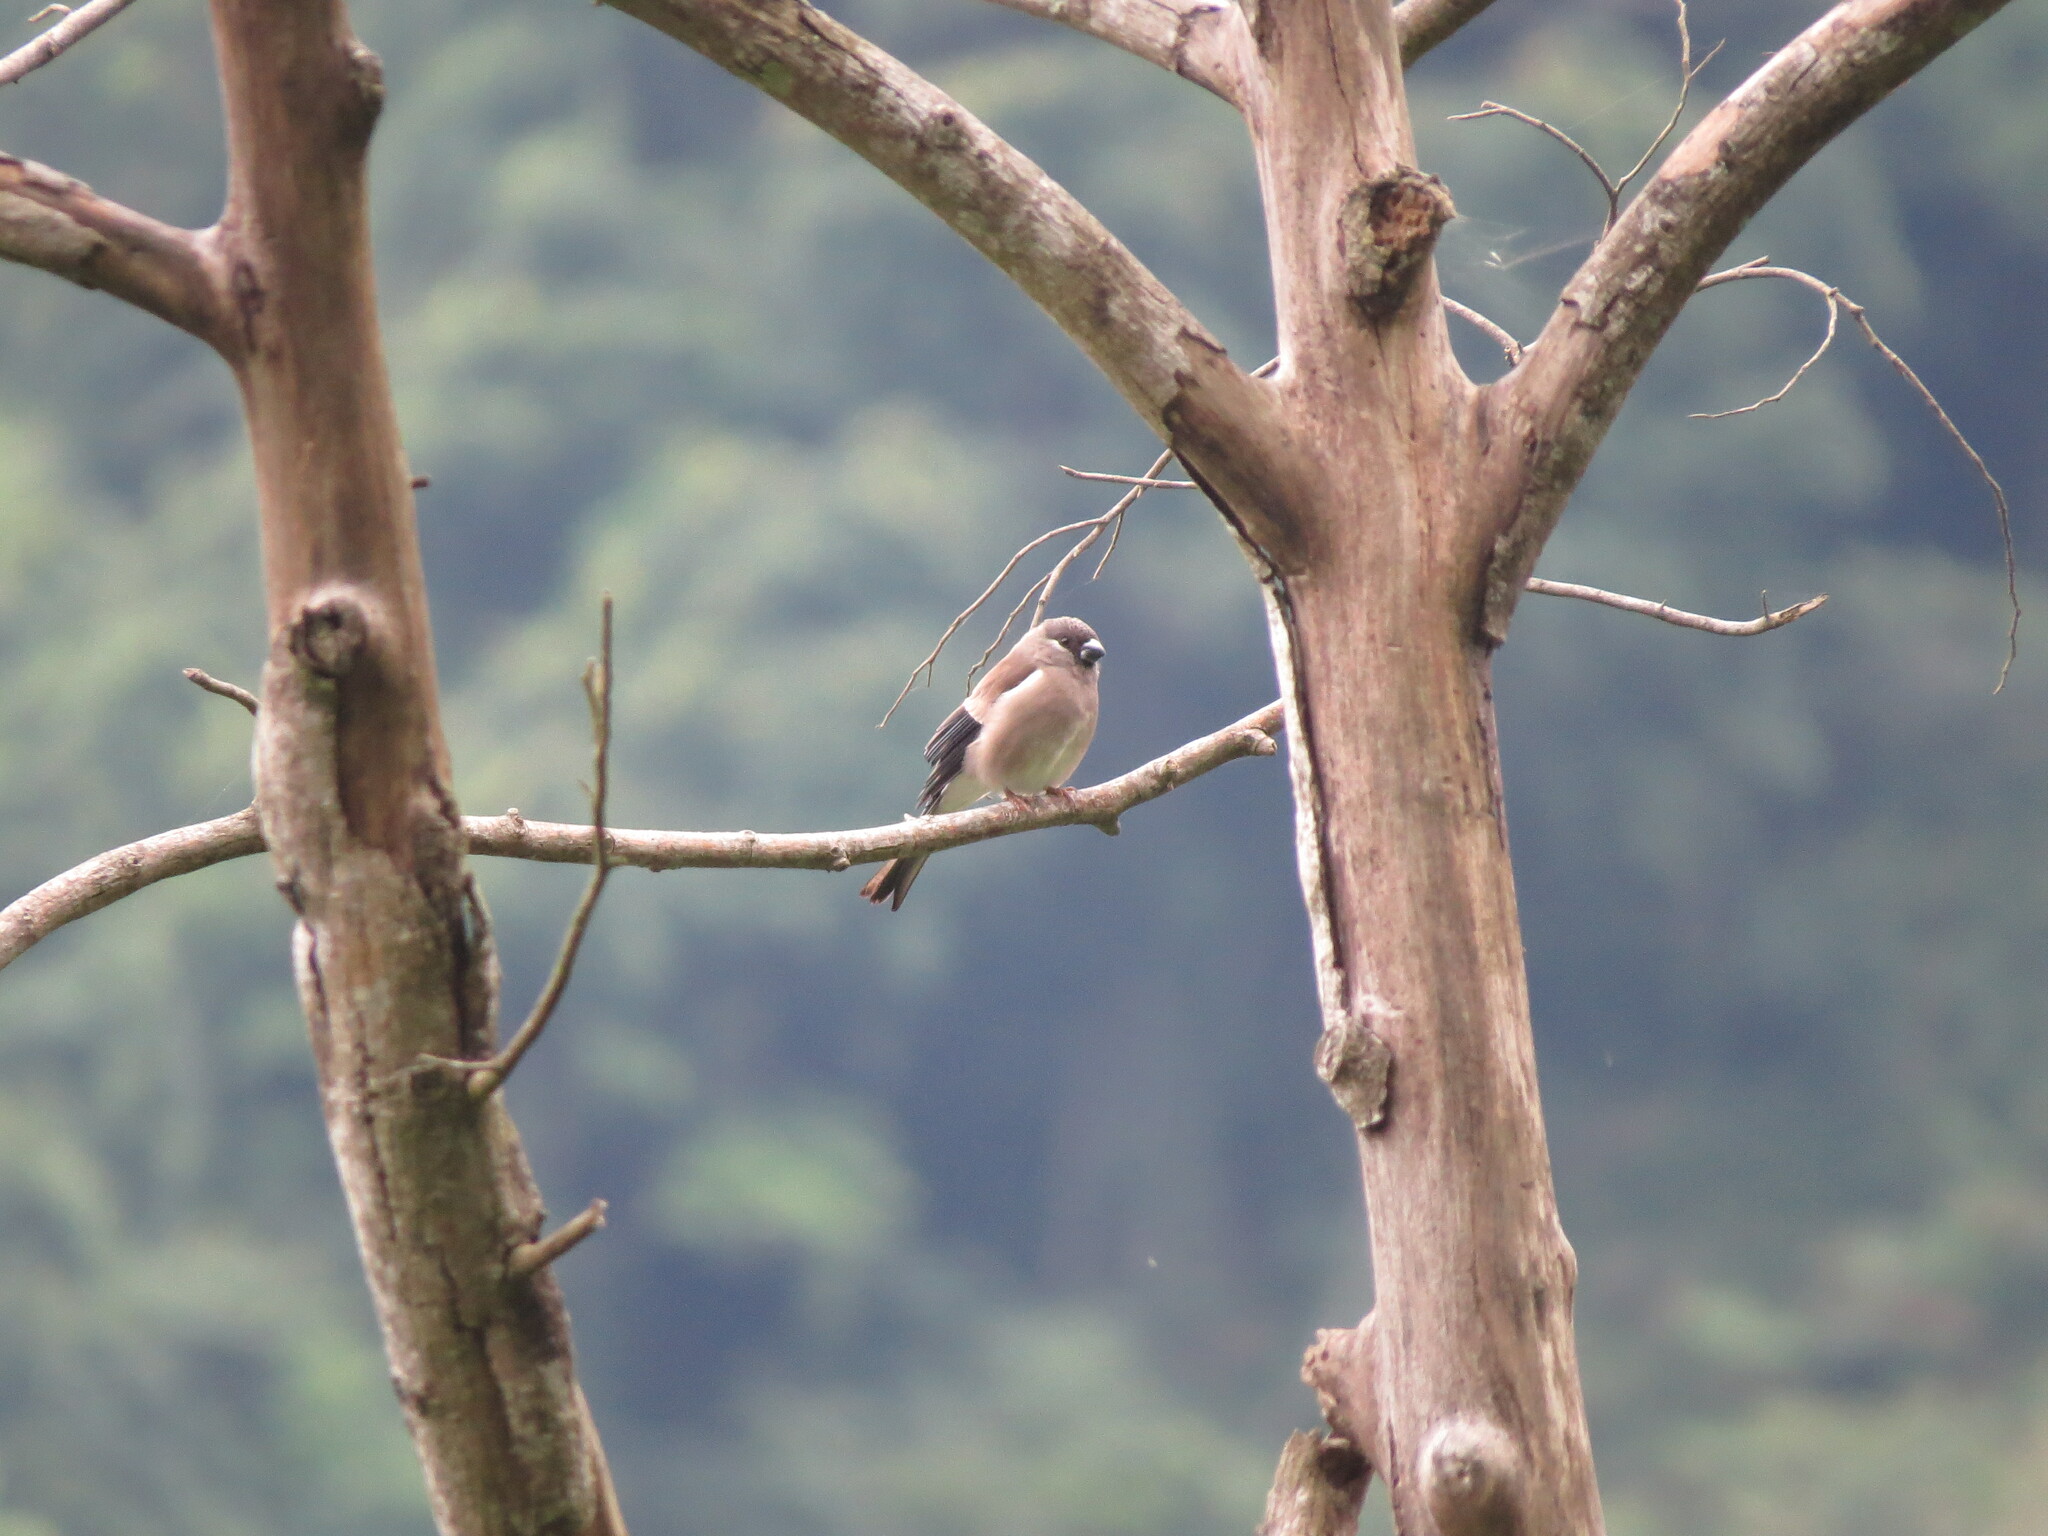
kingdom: Animalia
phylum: Chordata
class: Aves
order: Passeriformes
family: Fringillidae
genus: Pyrrhula
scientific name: Pyrrhula nipalensis
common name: Brown bullfinch
